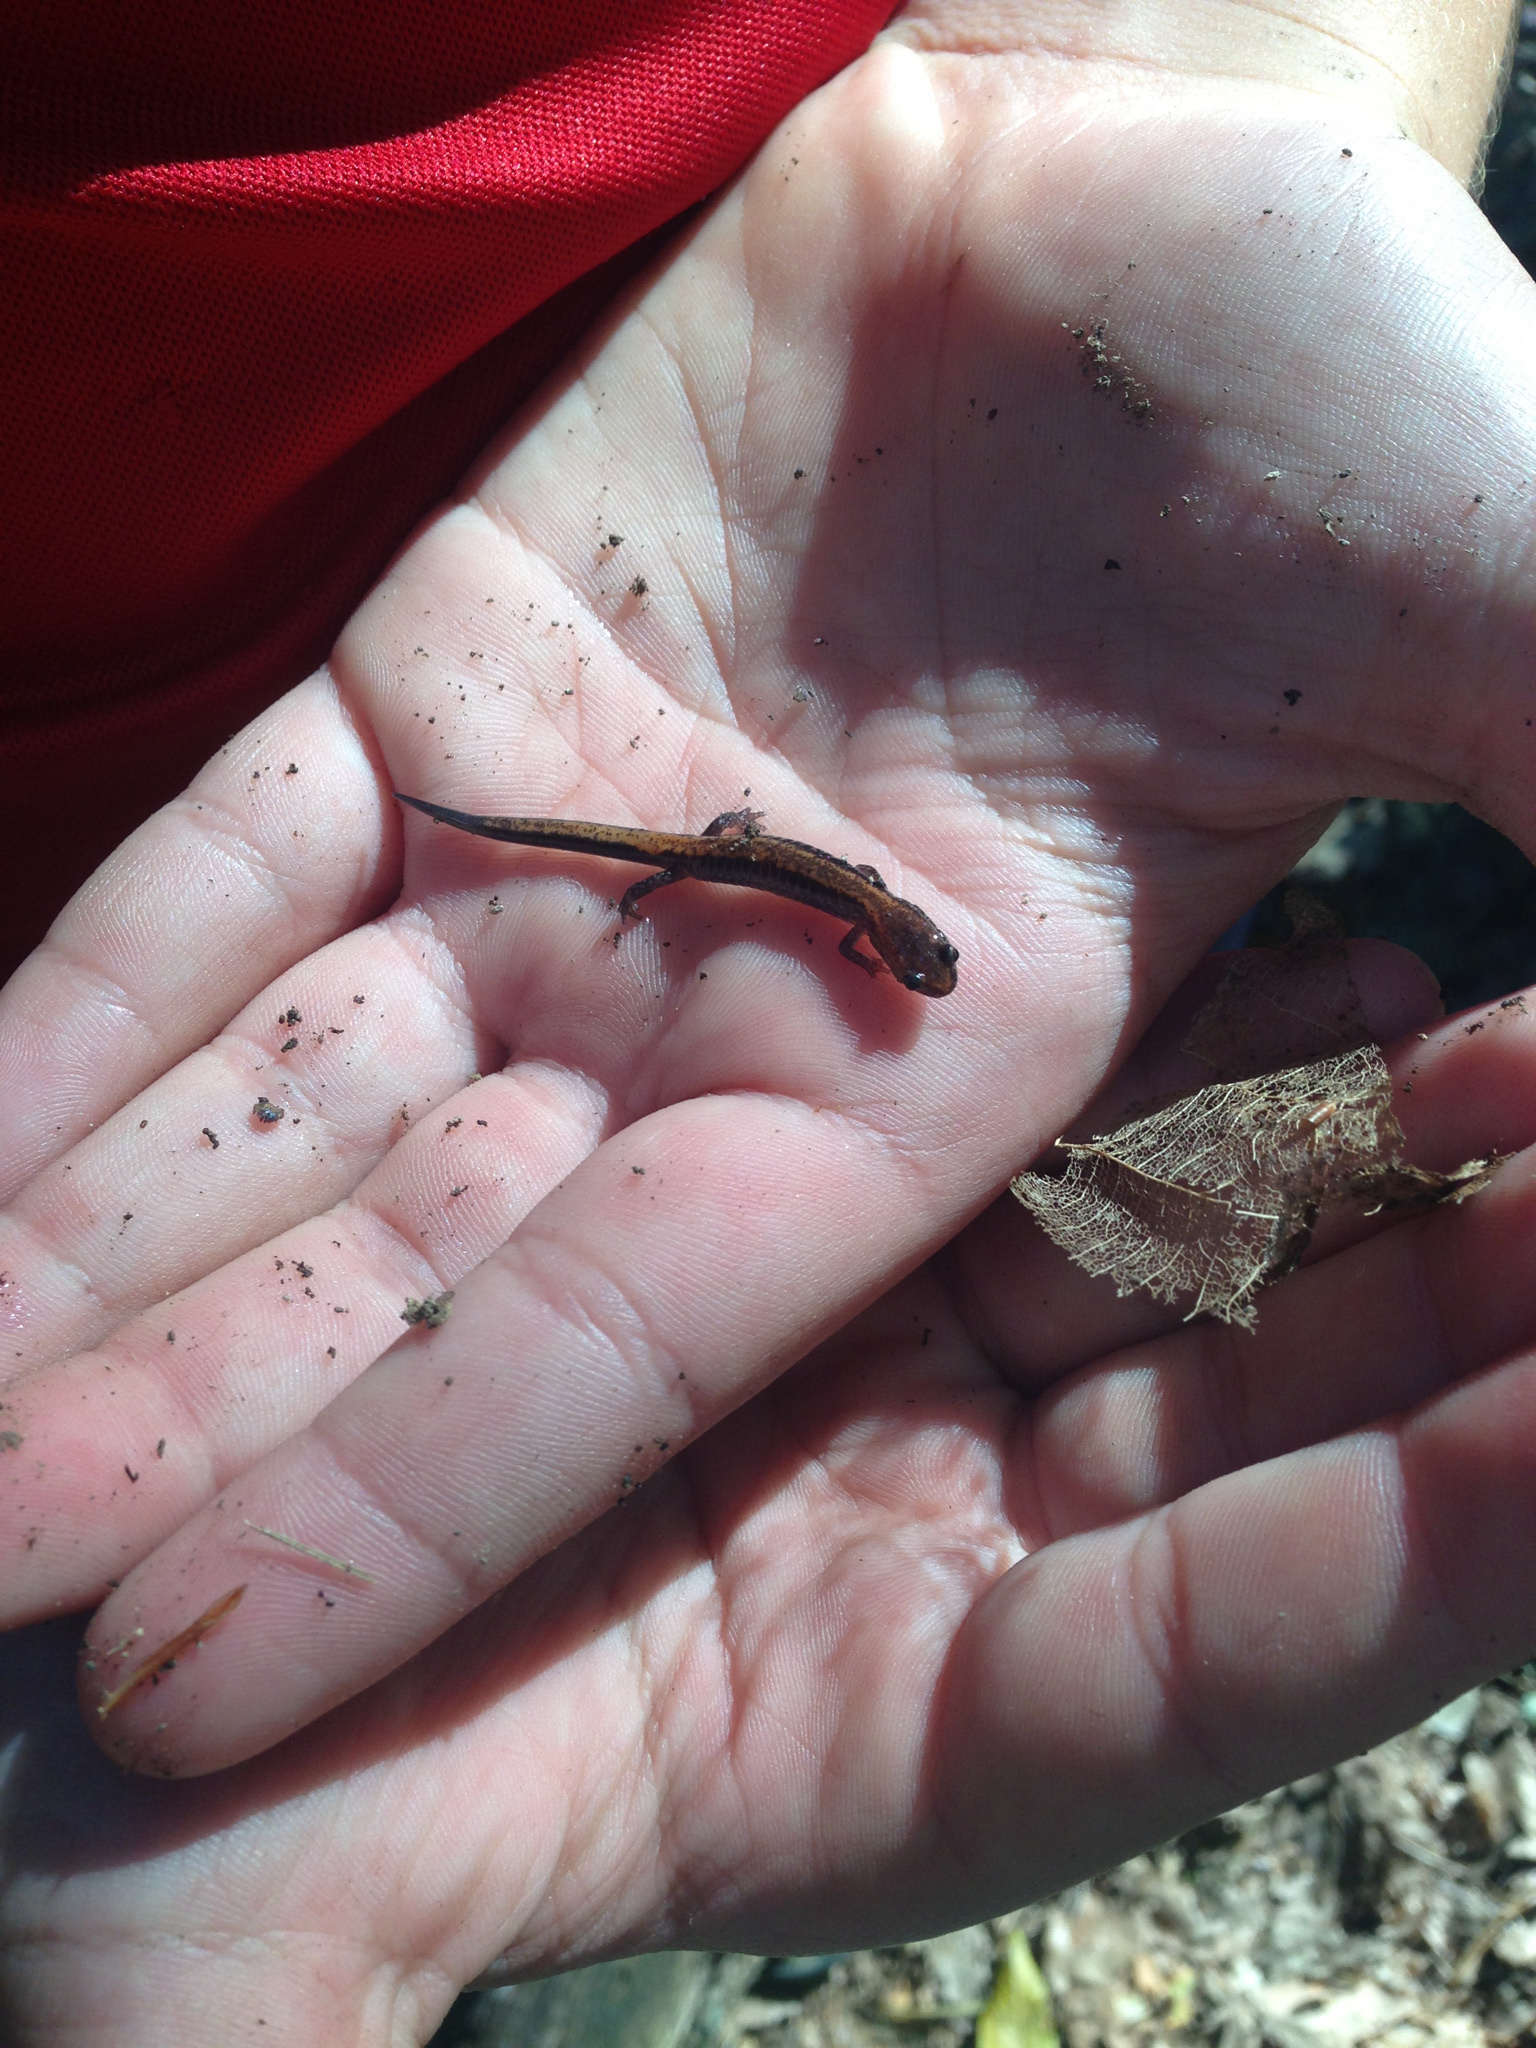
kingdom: Animalia
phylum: Chordata
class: Amphibia
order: Caudata
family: Plethodontidae
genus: Plethodon
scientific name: Plethodon cinereus
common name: Redback salamander
